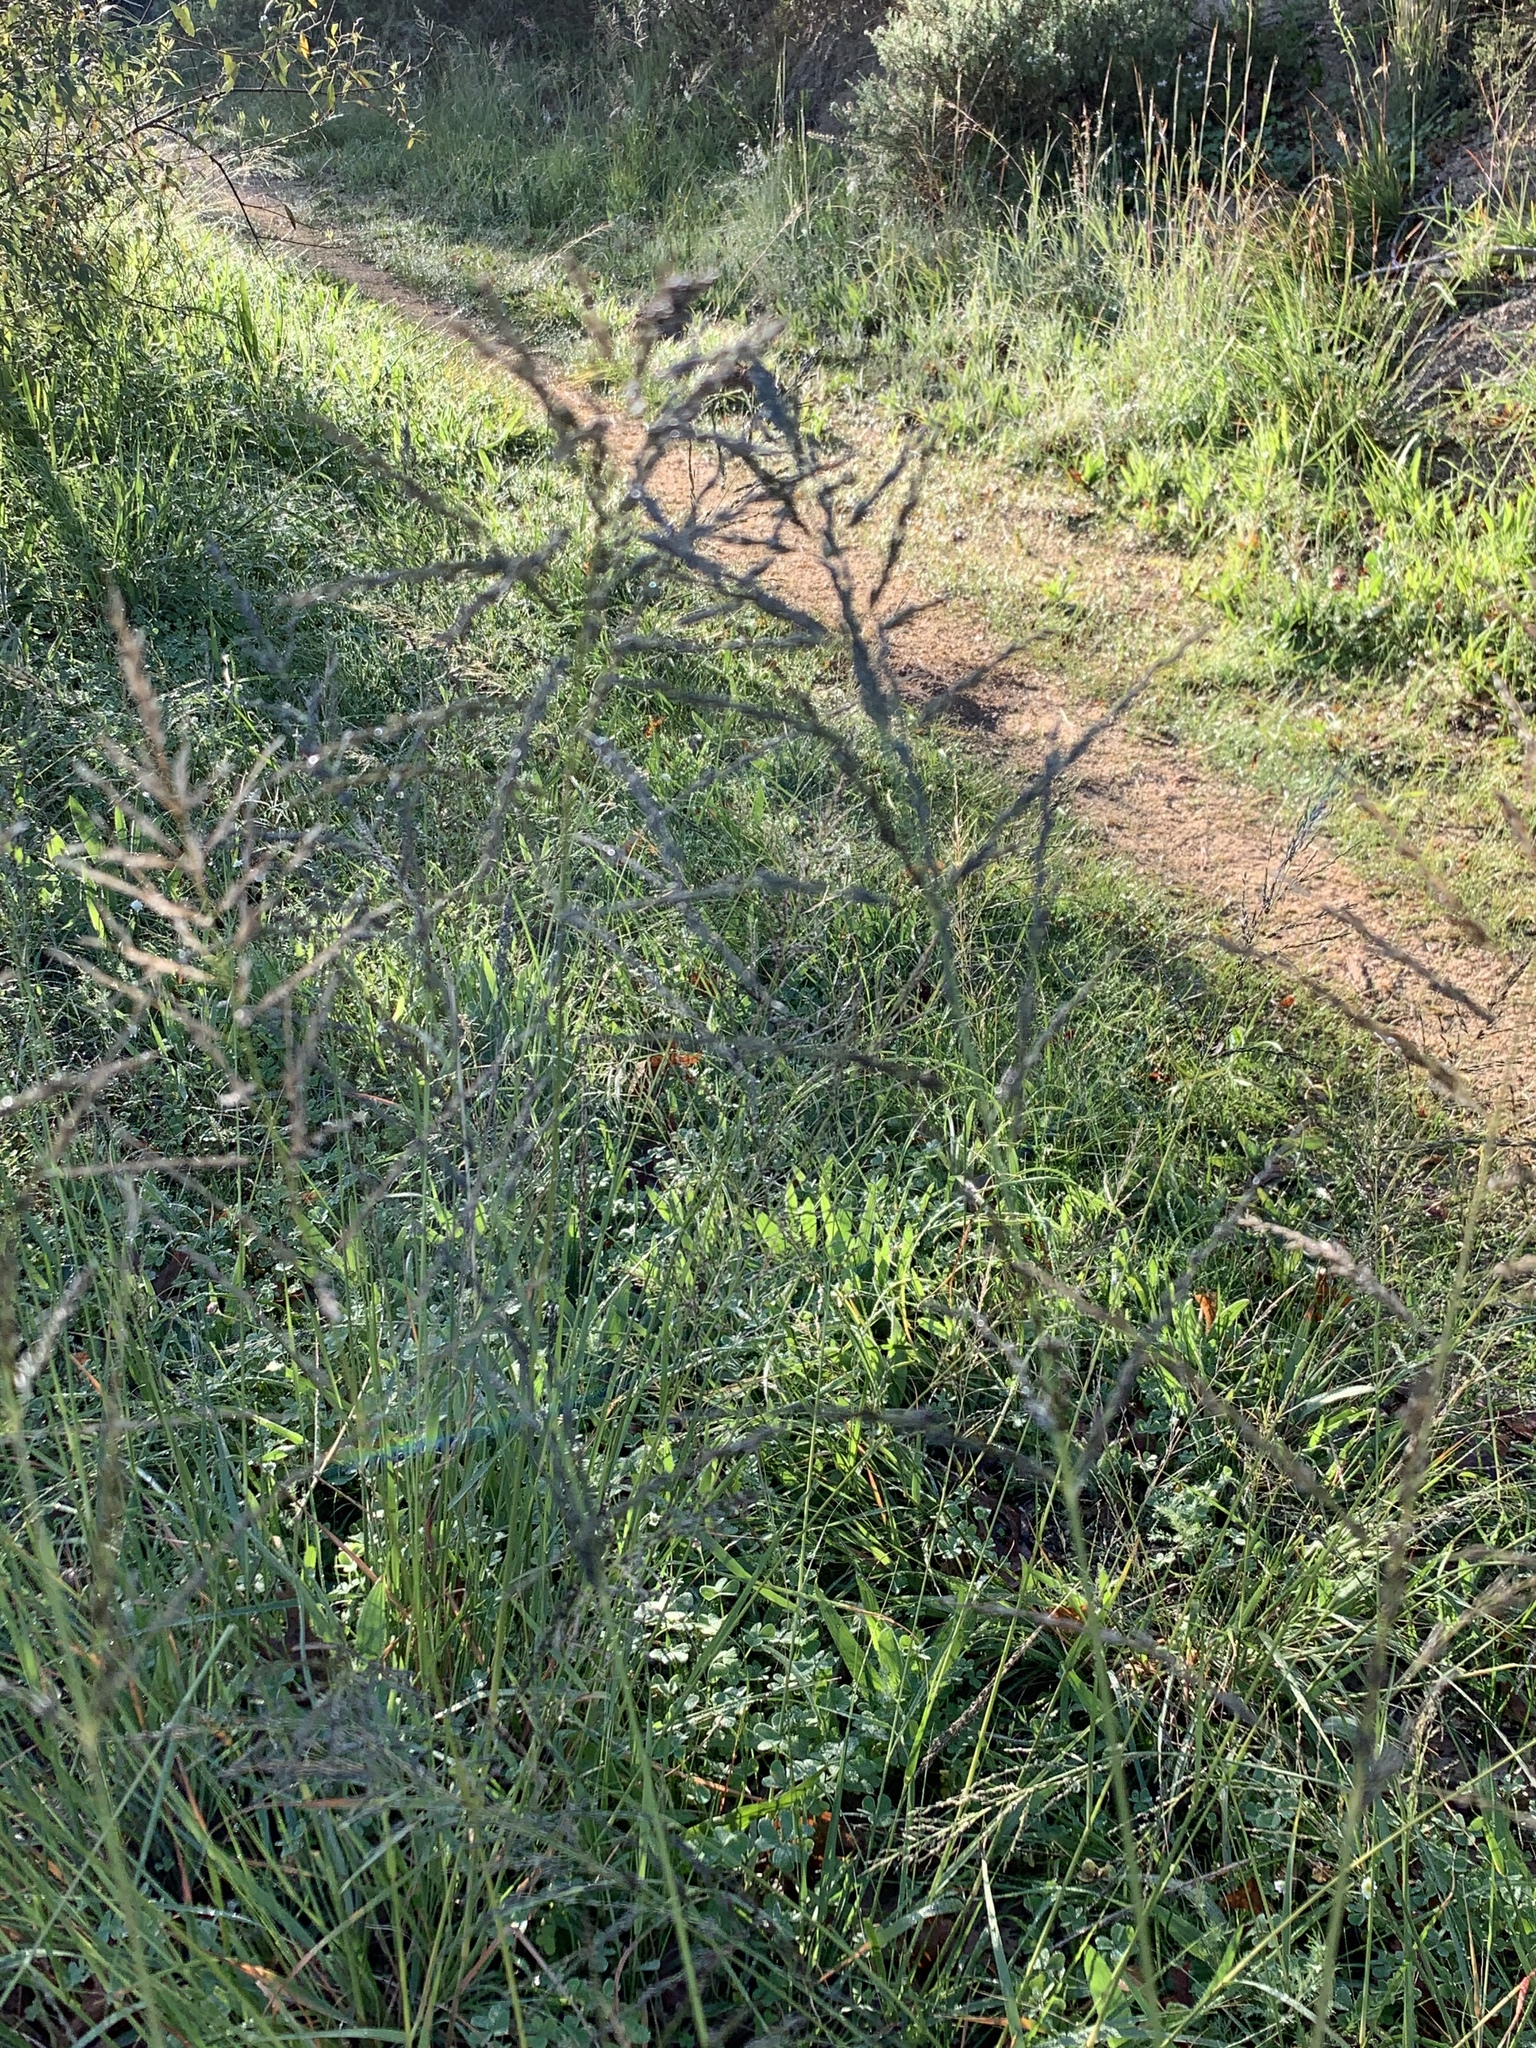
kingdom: Plantae
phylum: Tracheophyta
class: Liliopsida
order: Poales
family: Poaceae
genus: Eragrostis
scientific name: Eragrostis curvula
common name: African love-grass
